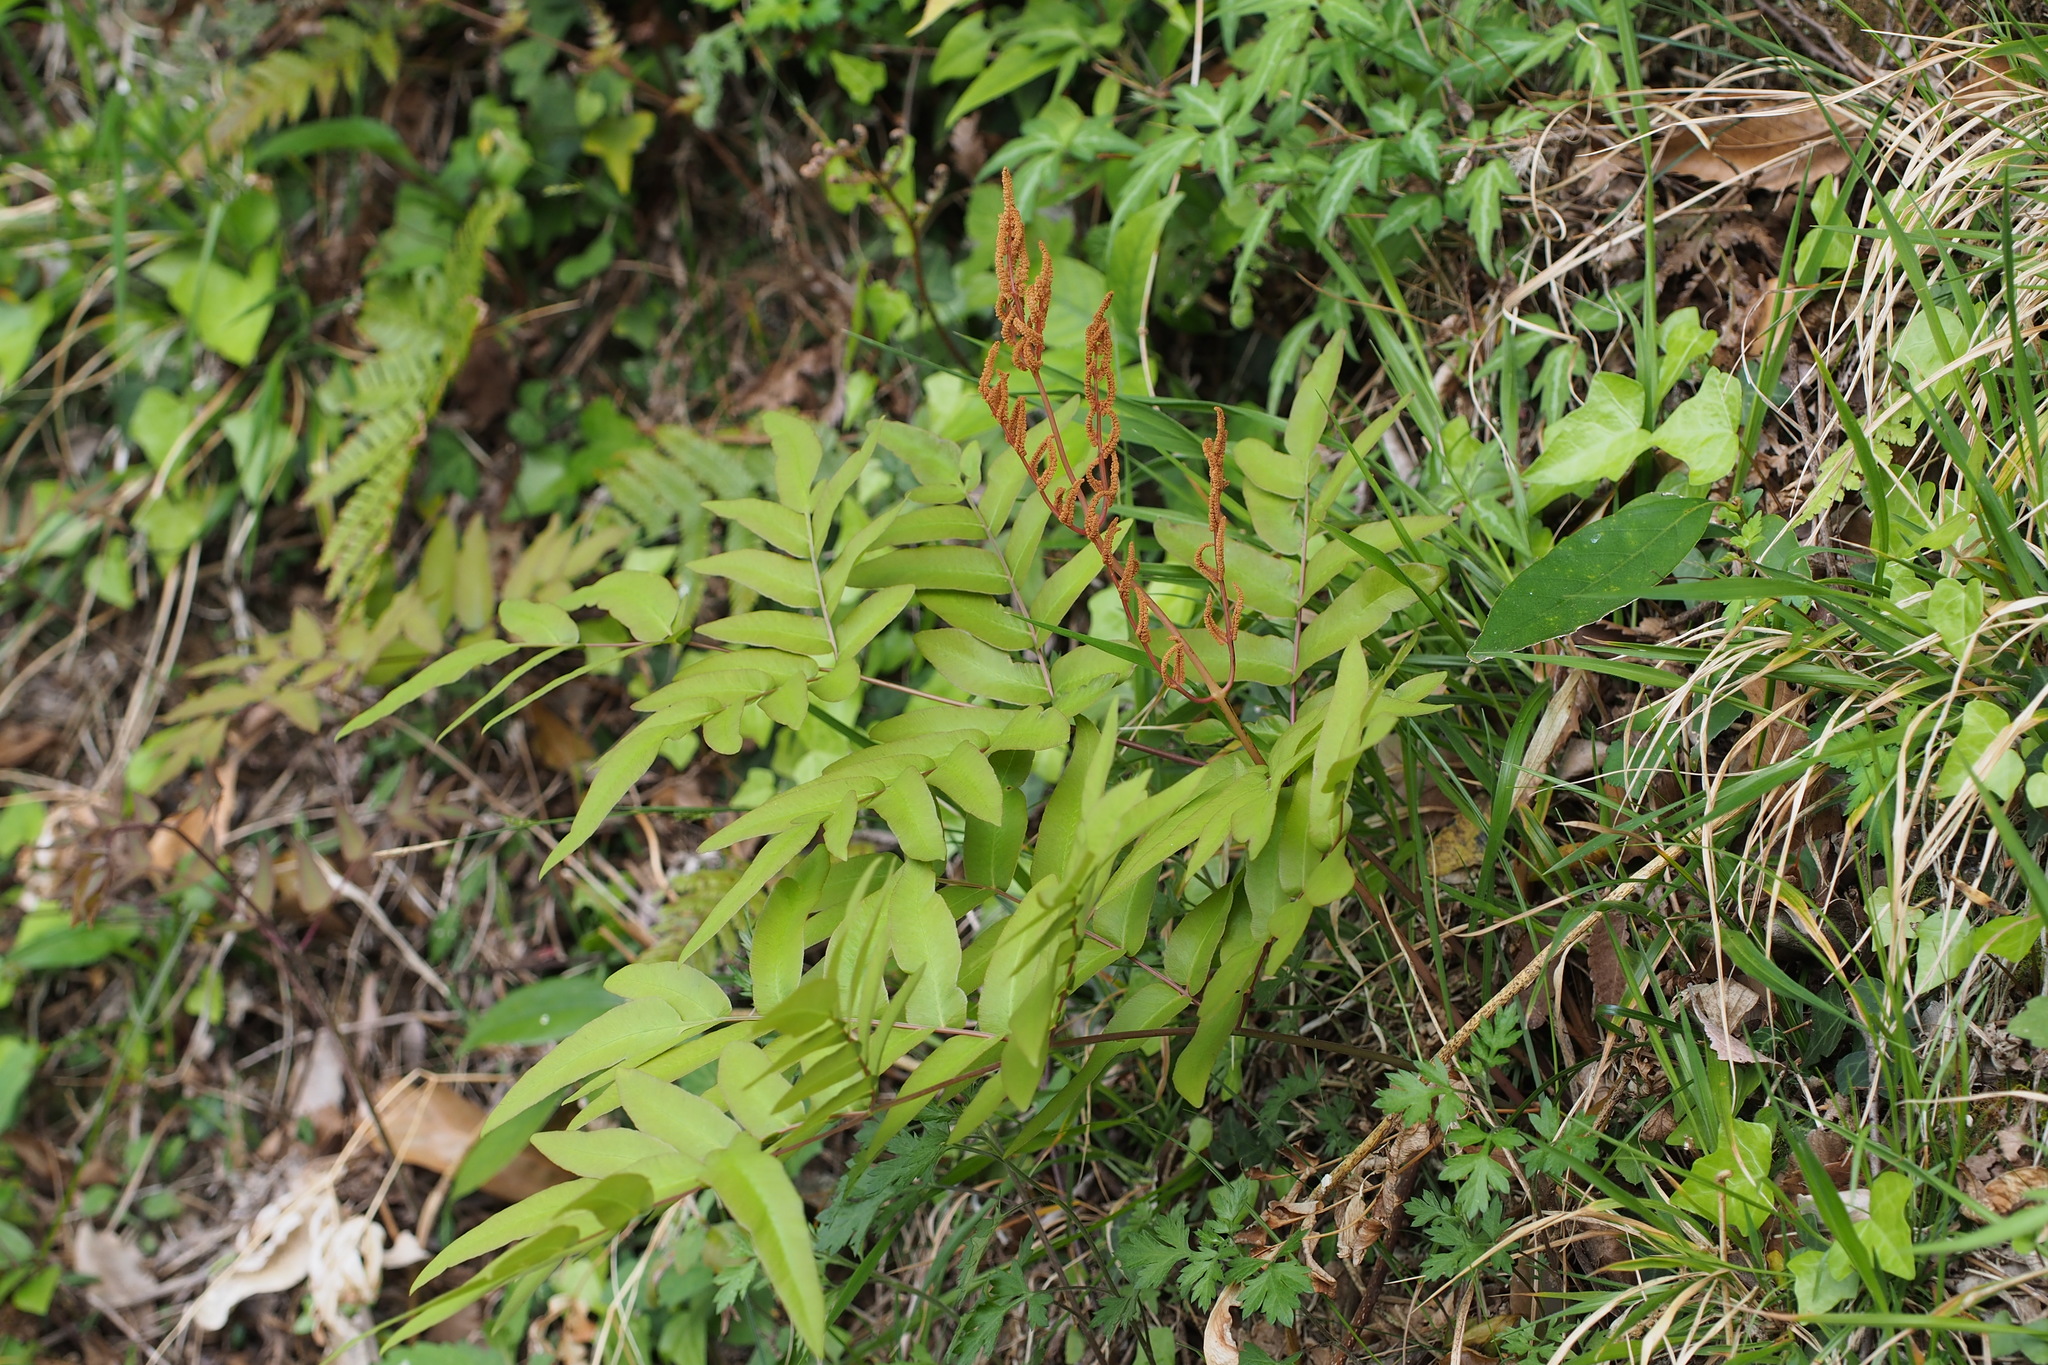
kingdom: Plantae
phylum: Tracheophyta
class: Polypodiopsida
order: Osmundales
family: Osmundaceae
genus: Osmunda
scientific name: Osmunda japonica
